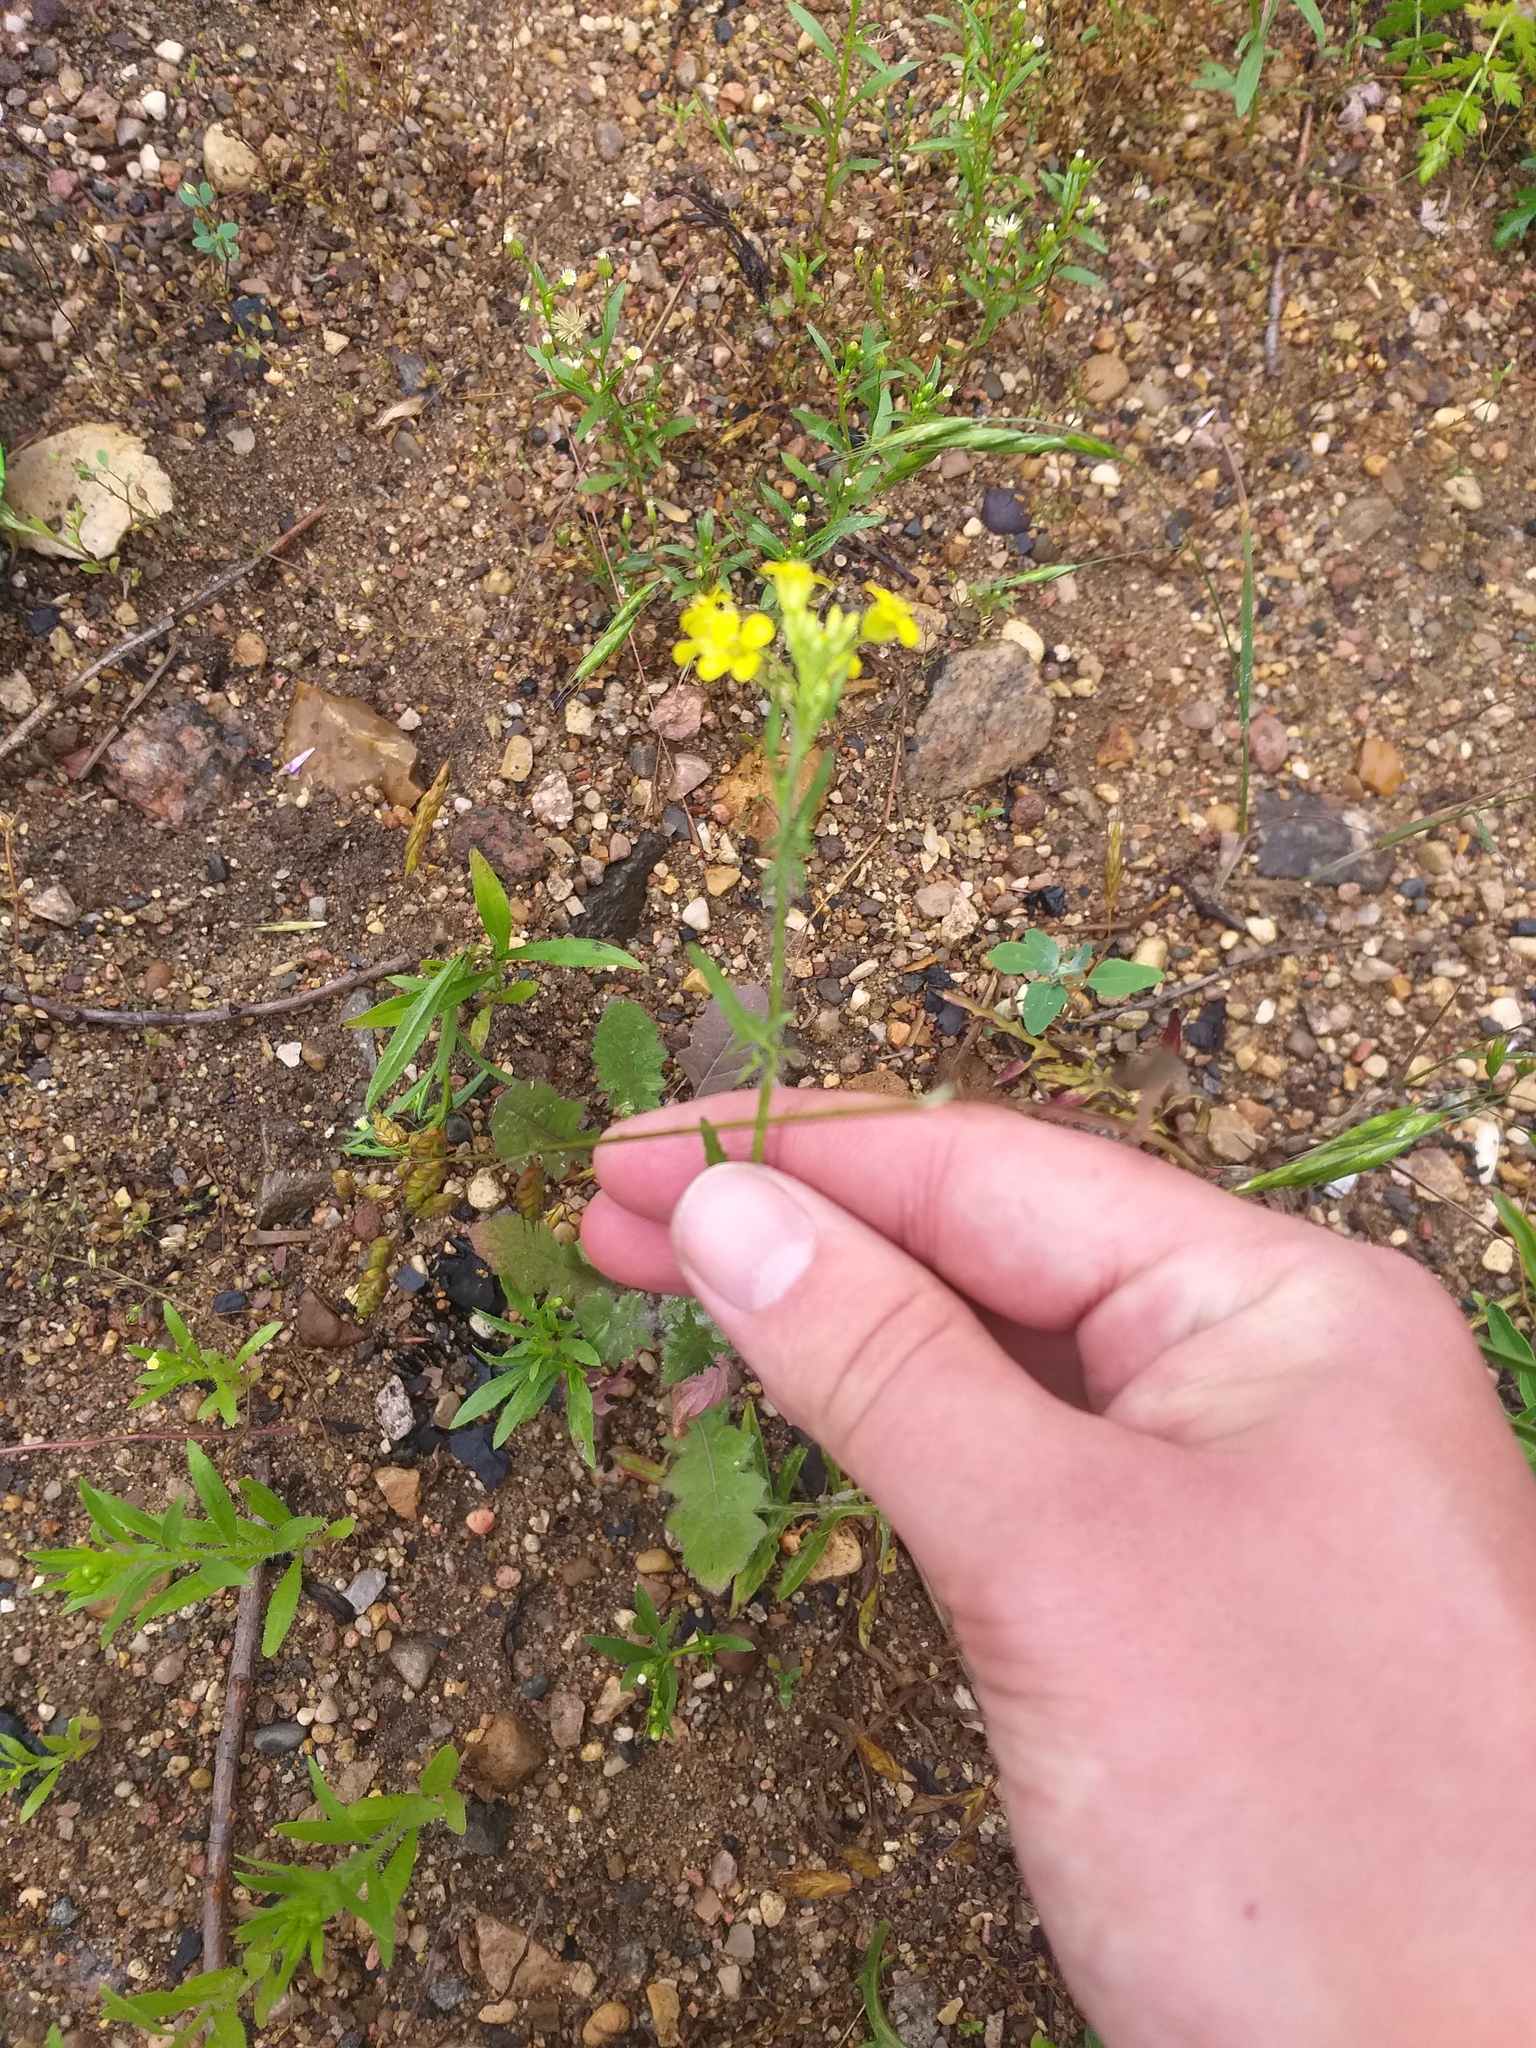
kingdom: Plantae
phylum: Tracheophyta
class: Magnoliopsida
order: Brassicales
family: Brassicaceae
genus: Sisymbrium
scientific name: Sisymbrium loeselii
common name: False london-rocket
